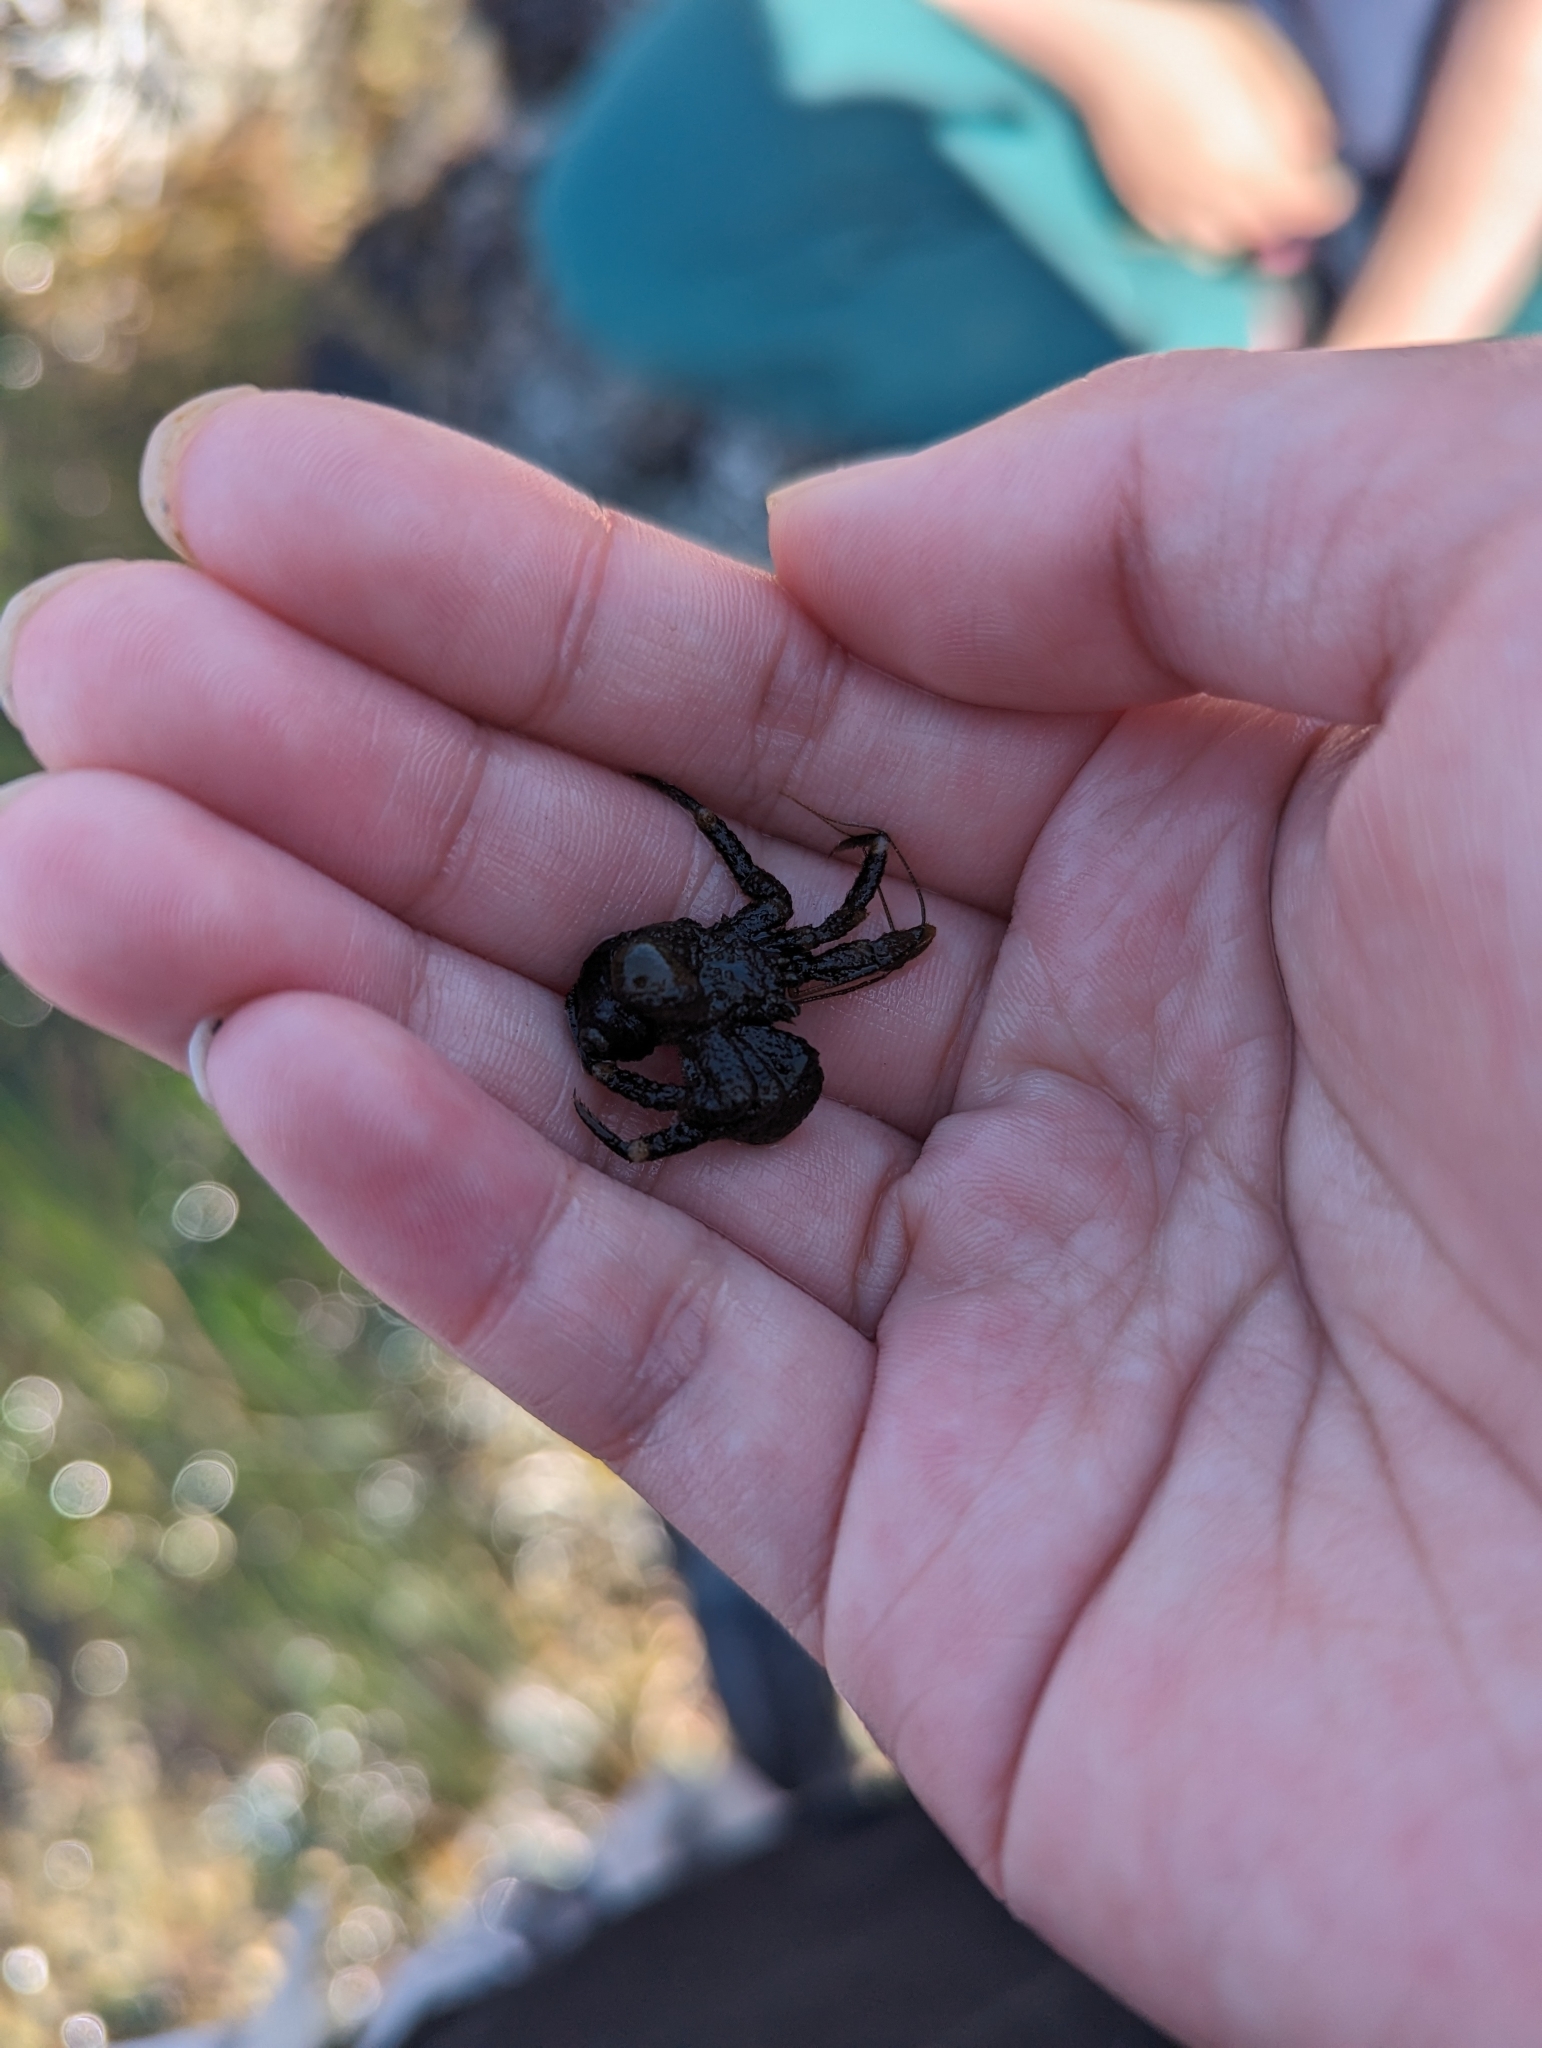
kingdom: Animalia
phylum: Arthropoda
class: Malacostraca
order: Decapoda
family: Paguridae
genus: Pagurus
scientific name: Pagurus hirsutiusculus
